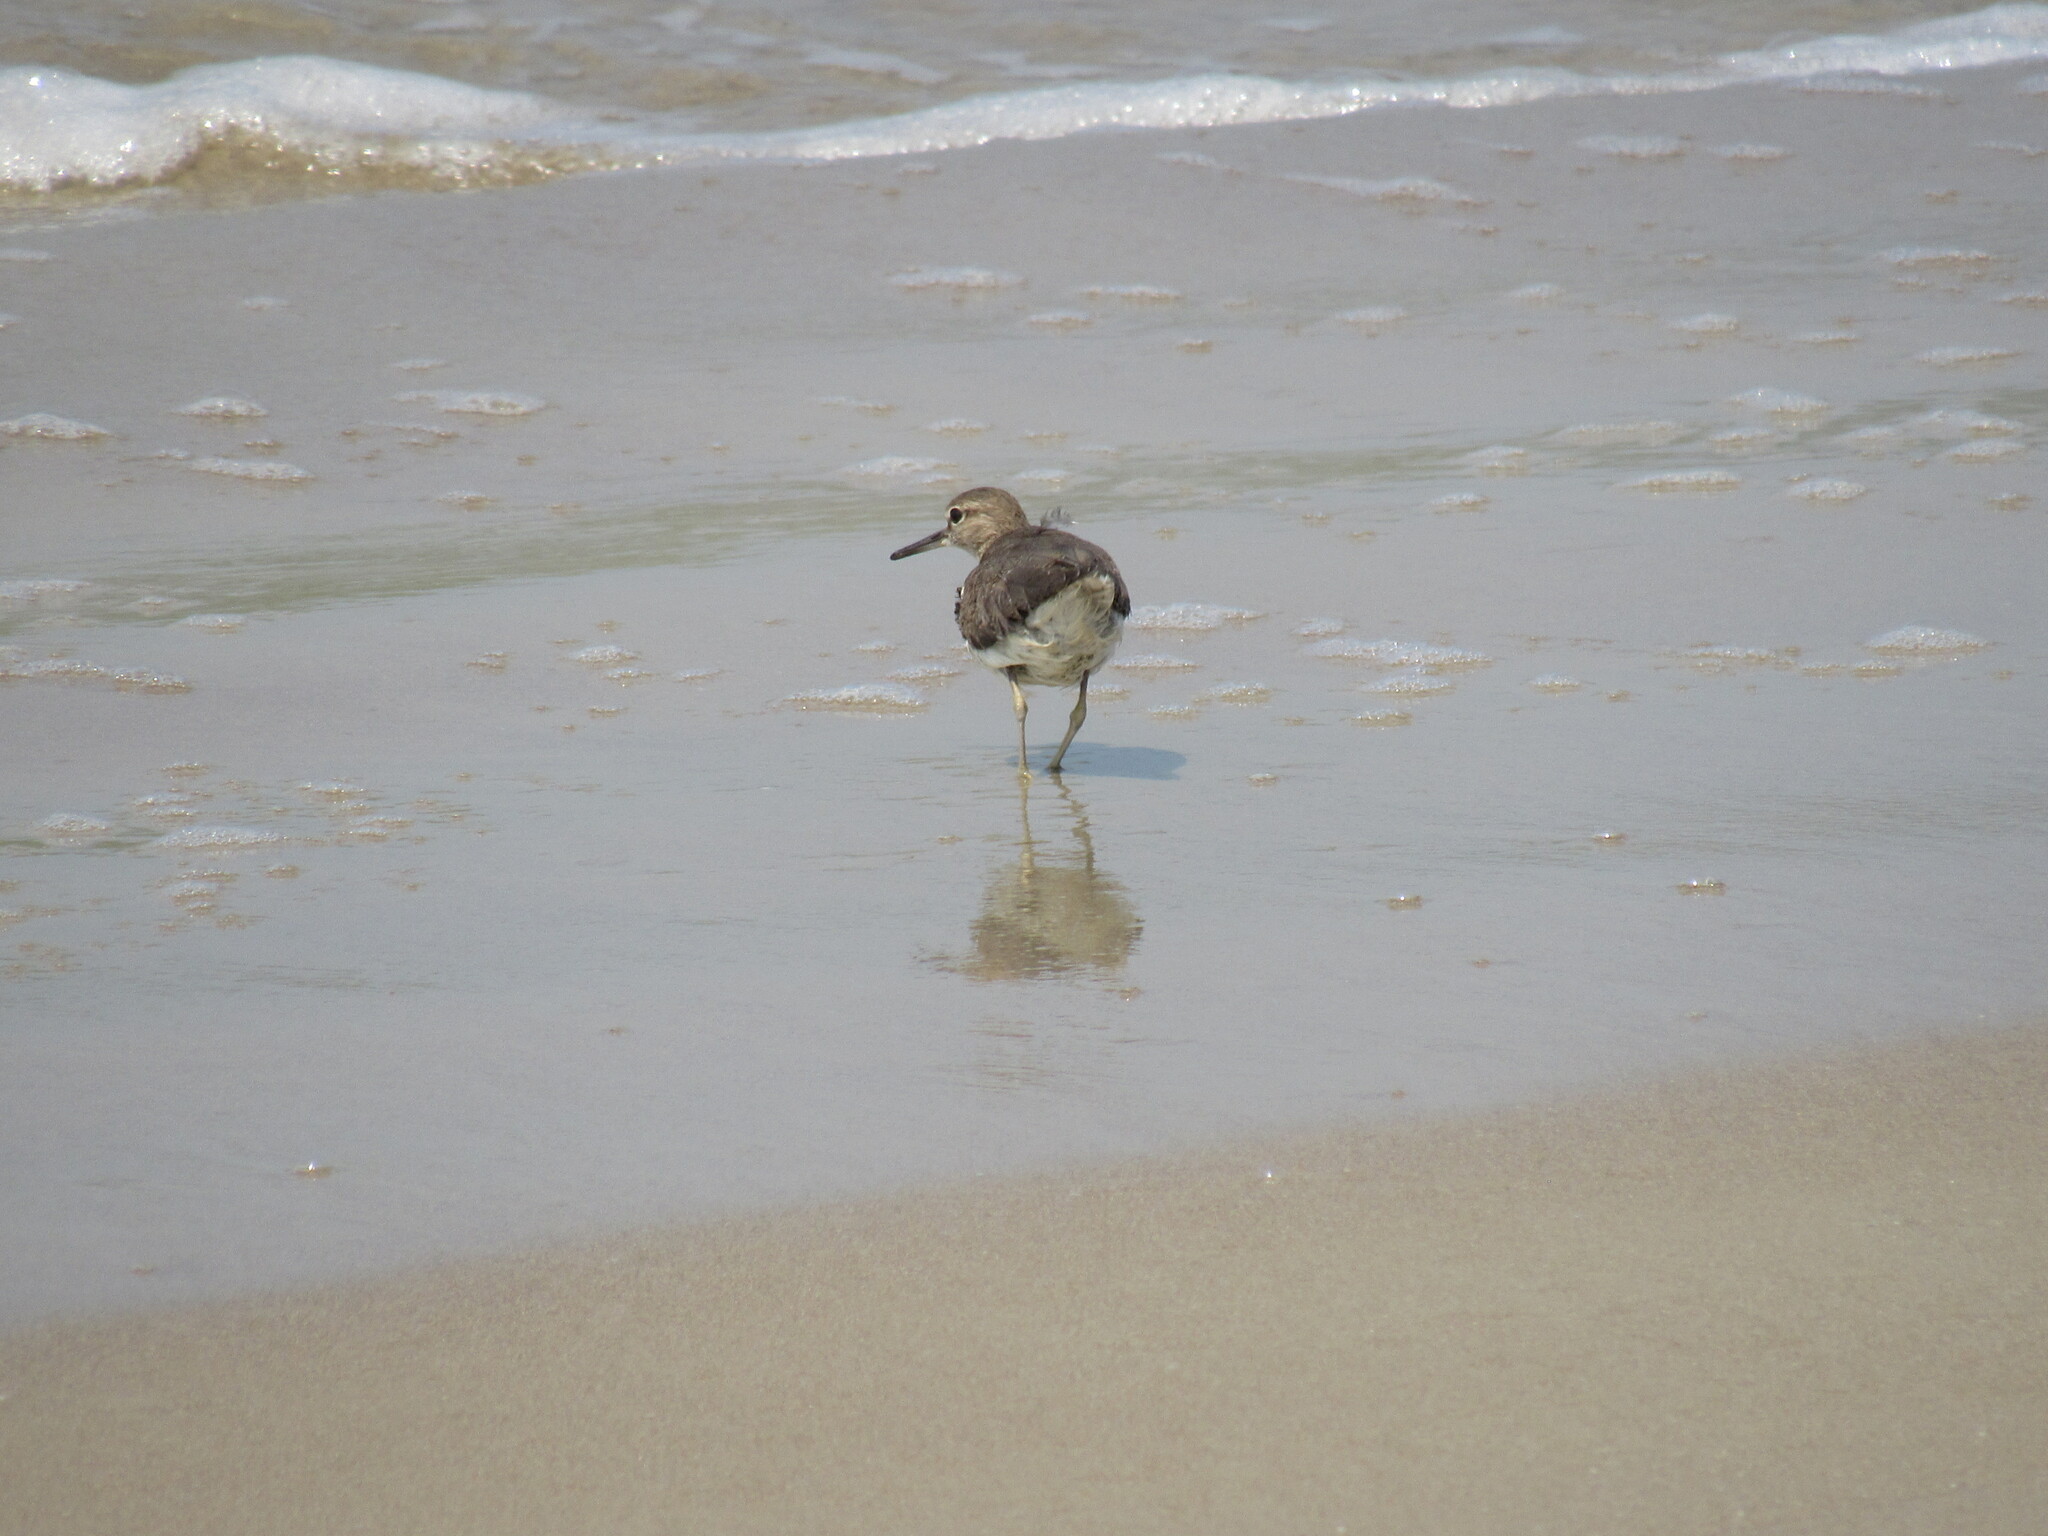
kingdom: Animalia
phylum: Chordata
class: Aves
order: Charadriiformes
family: Scolopacidae
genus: Actitis
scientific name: Actitis hypoleucos
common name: Common sandpiper
